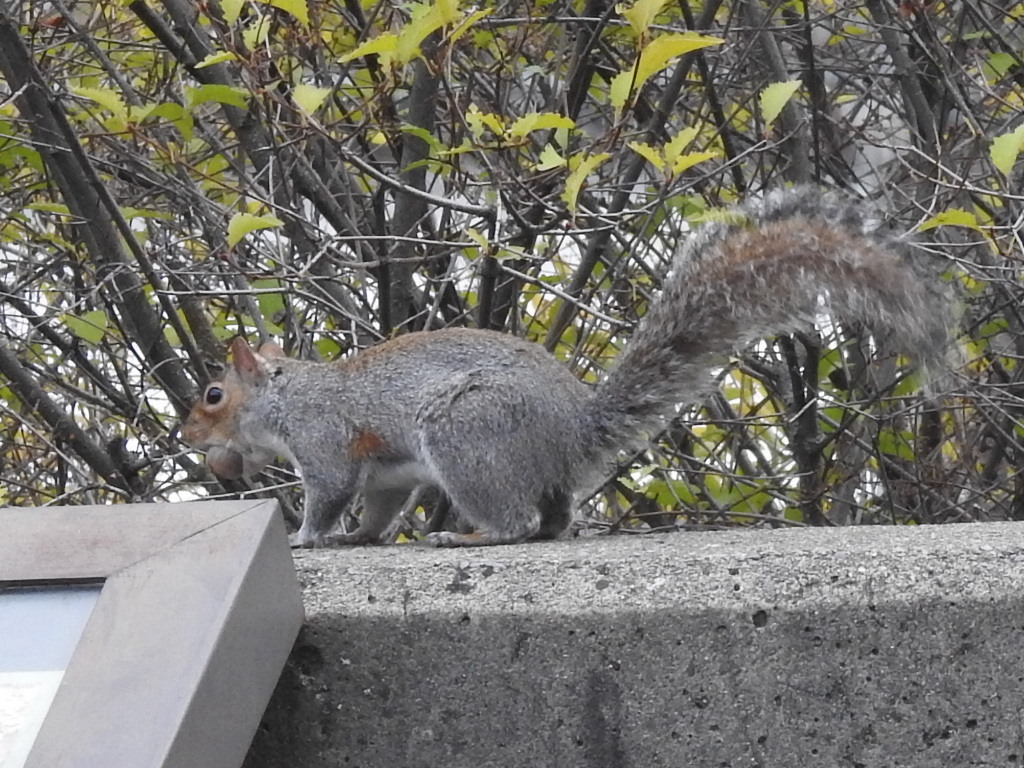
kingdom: Animalia
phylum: Chordata
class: Mammalia
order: Rodentia
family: Sciuridae
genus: Sciurus
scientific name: Sciurus carolinensis
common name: Eastern gray squirrel
